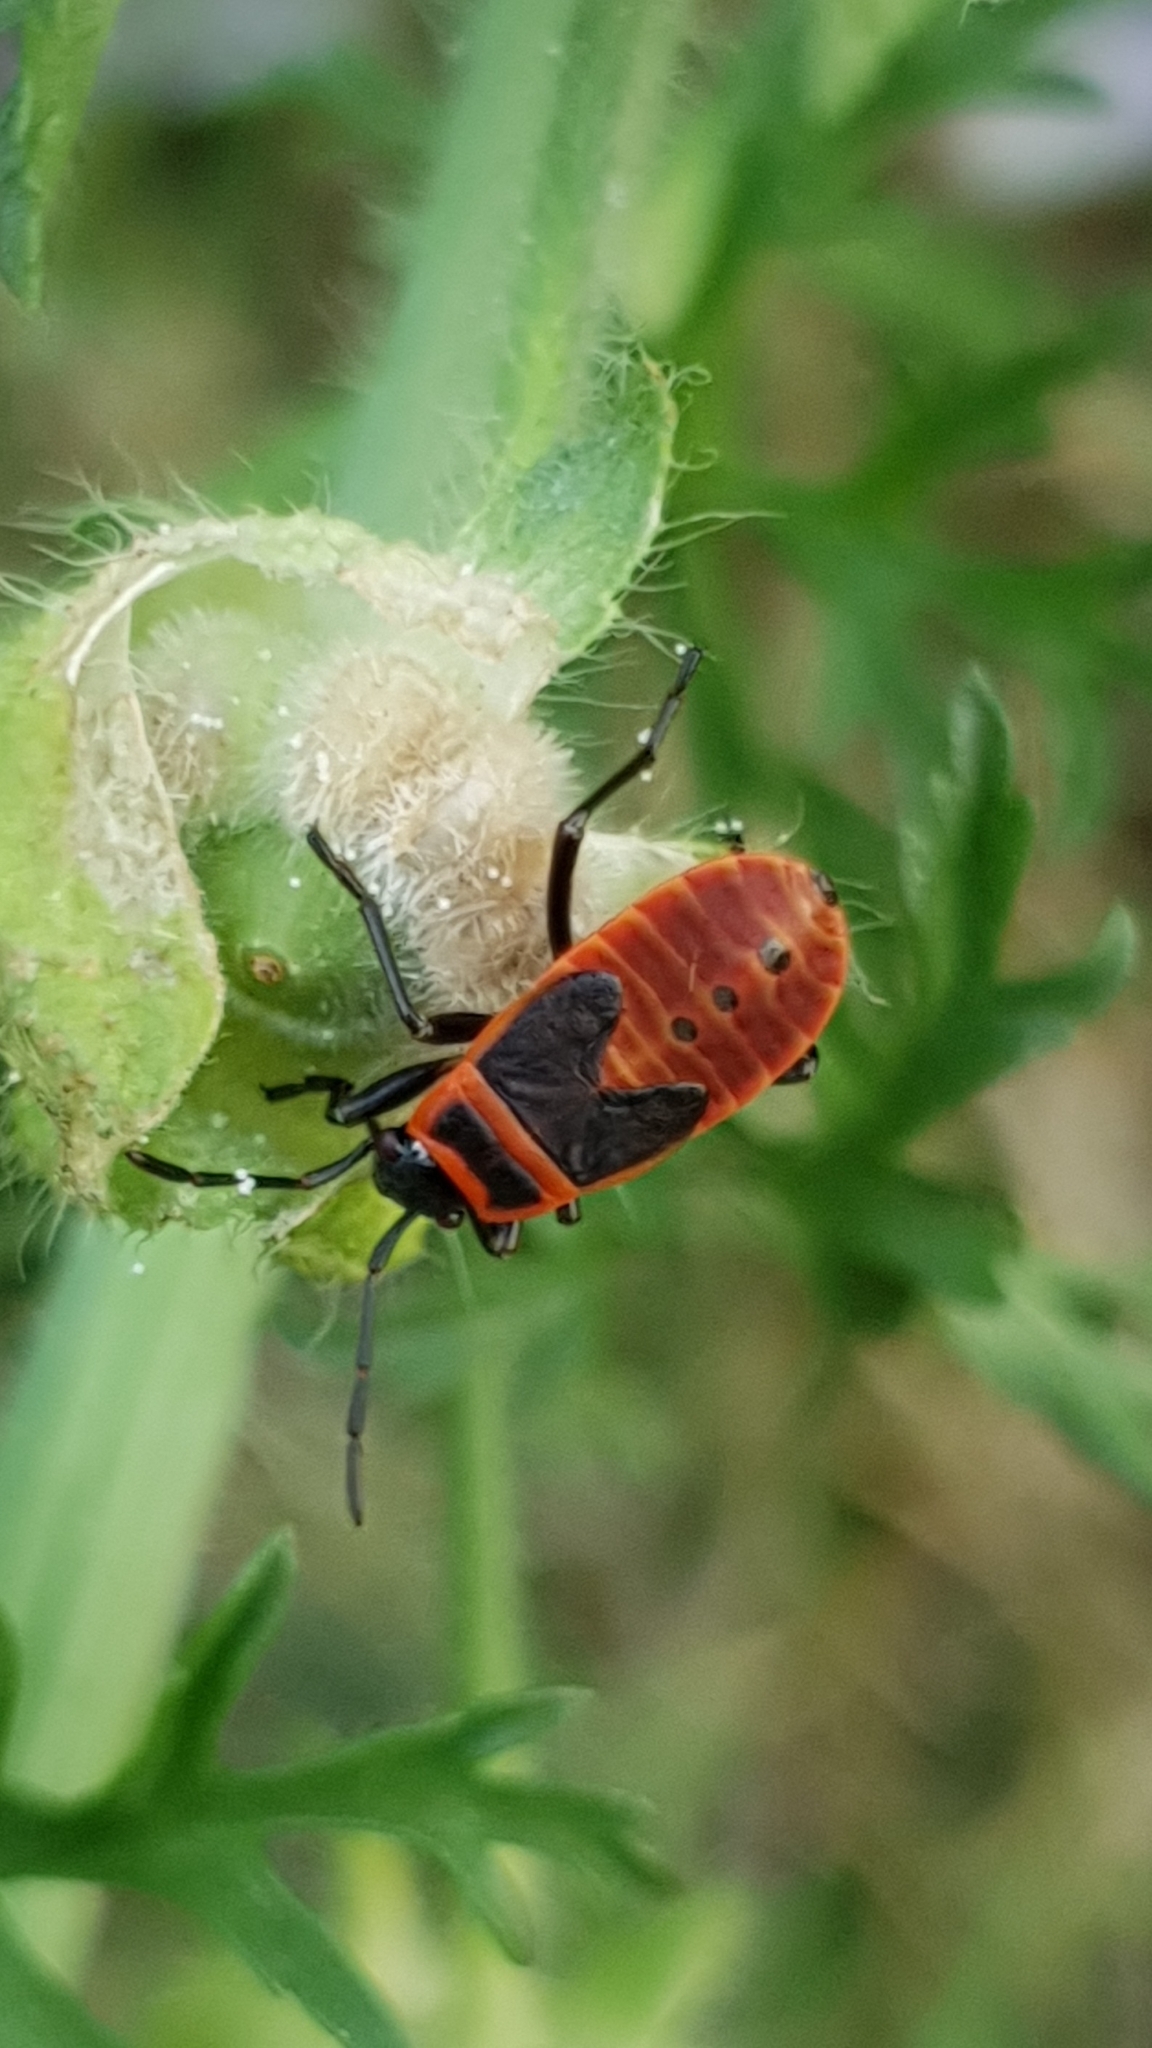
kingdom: Animalia
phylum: Arthropoda
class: Insecta
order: Hemiptera
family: Pyrrhocoridae
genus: Pyrrhocoris
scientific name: Pyrrhocoris apterus
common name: Firebug
